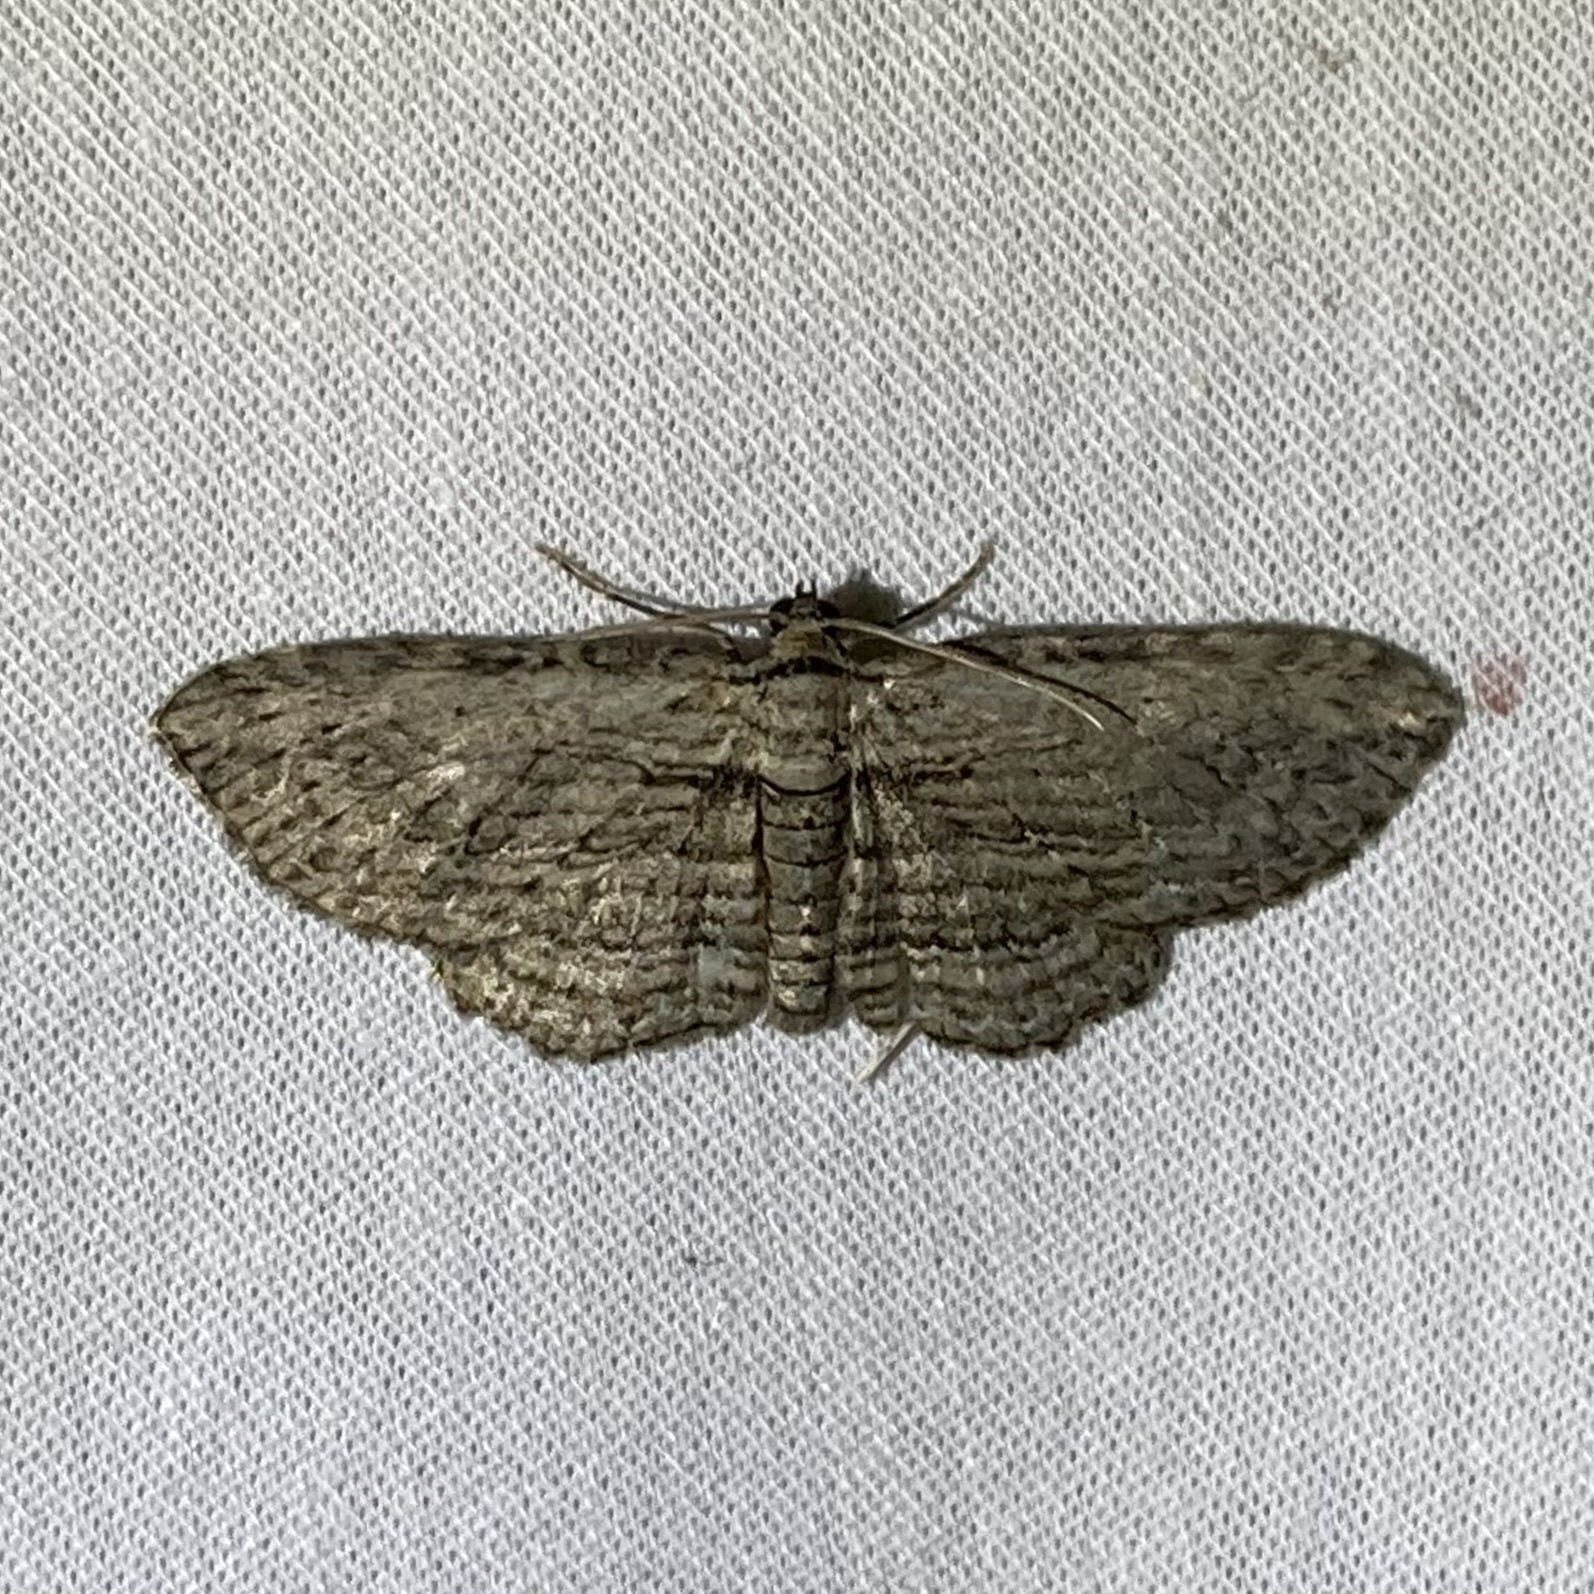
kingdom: Animalia
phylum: Arthropoda
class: Insecta
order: Lepidoptera
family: Geometridae
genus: Horisme
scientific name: Horisme intestinata
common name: Brown bark carpet
